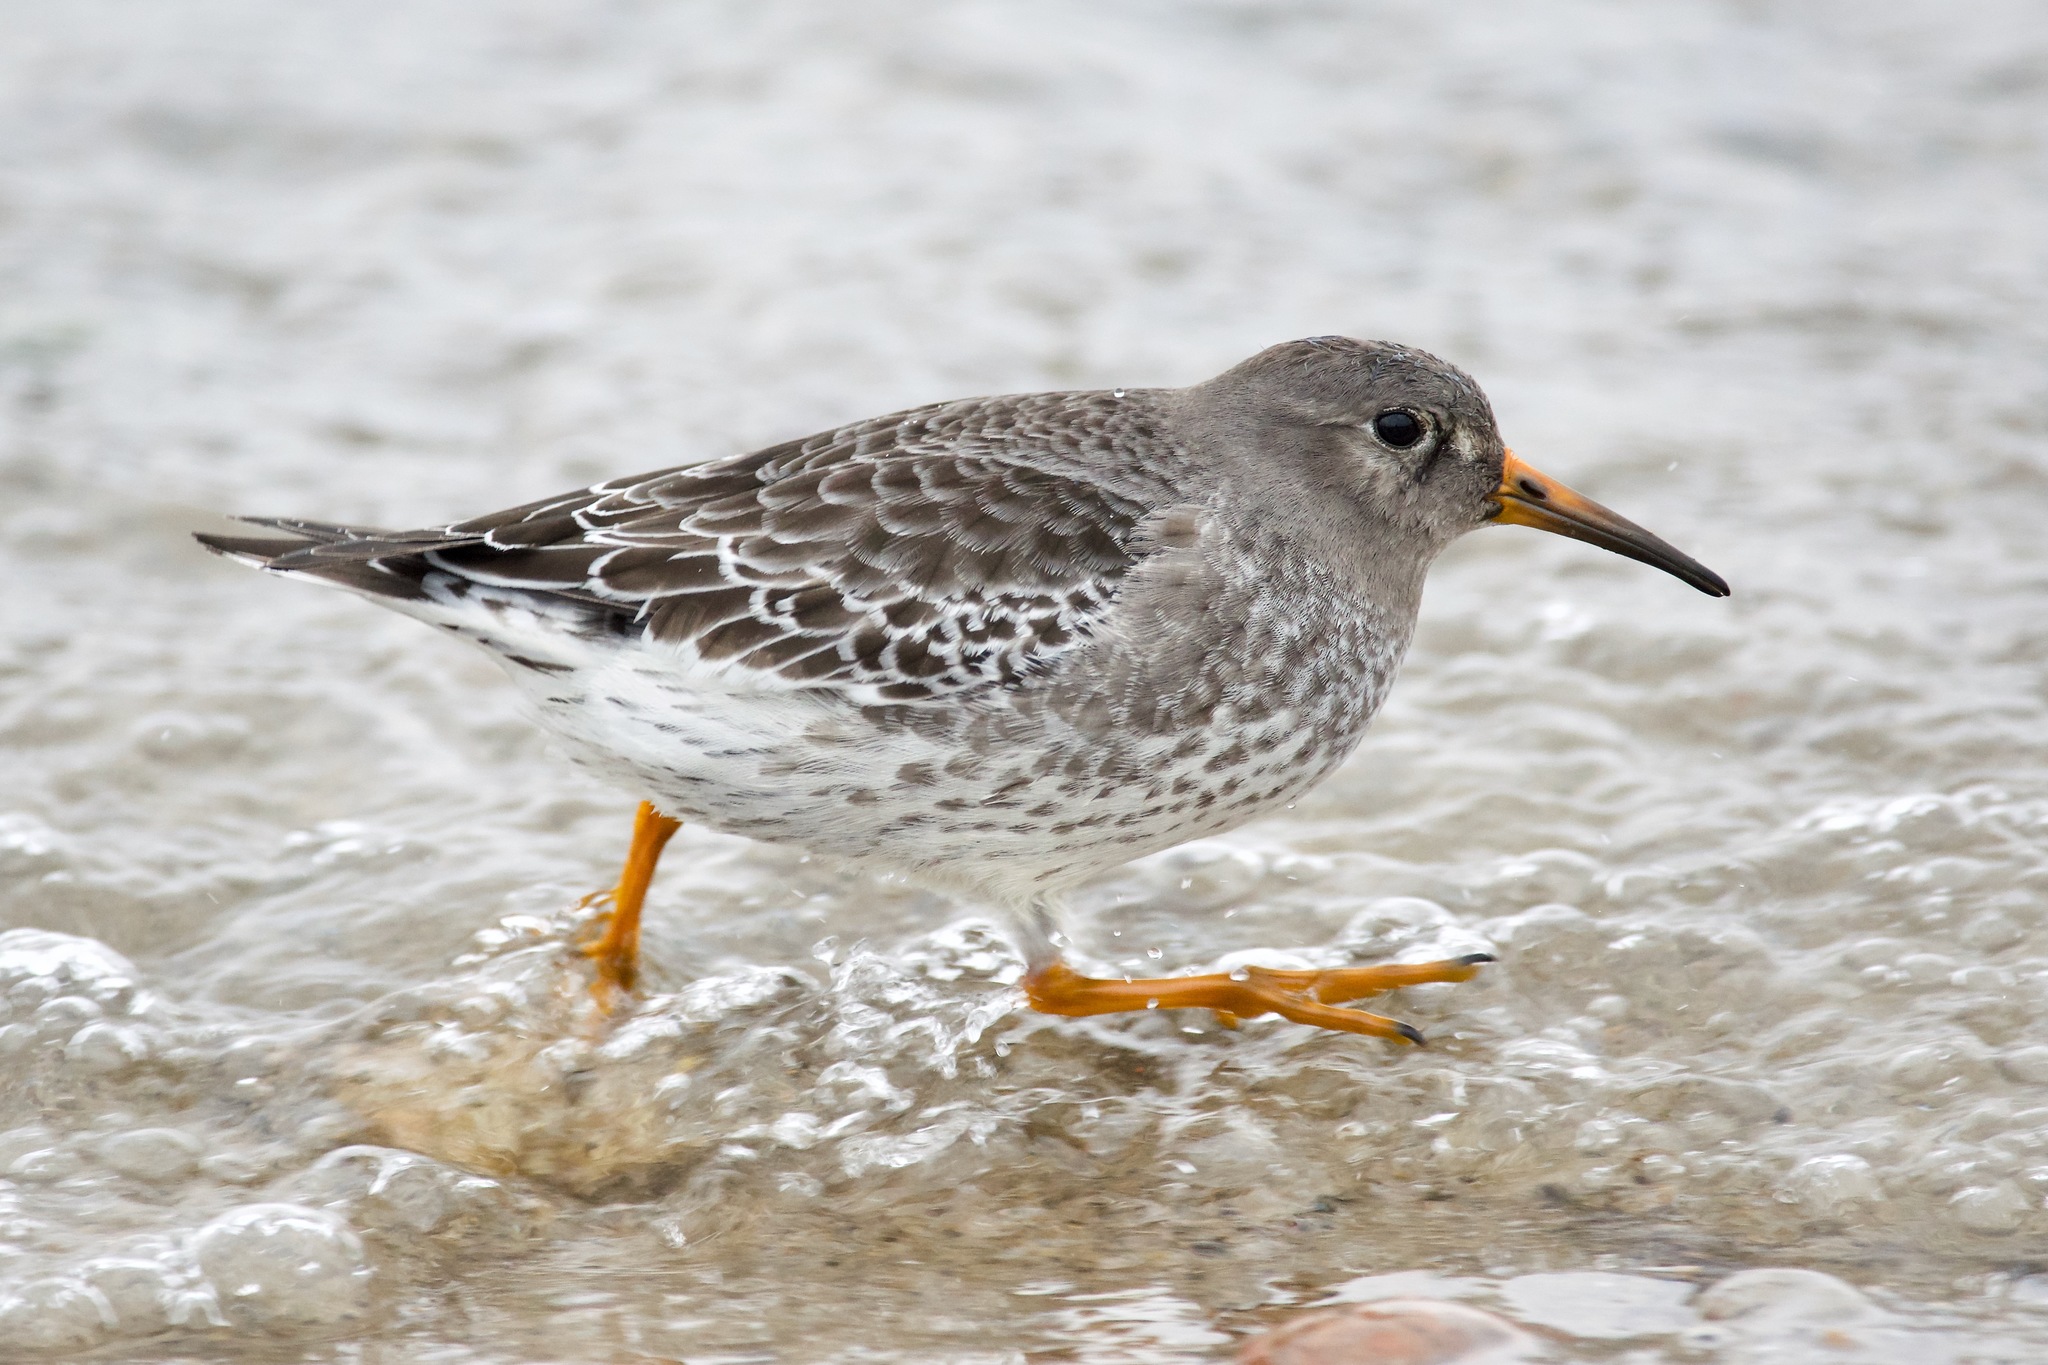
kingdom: Animalia
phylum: Chordata
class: Aves
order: Charadriiformes
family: Scolopacidae
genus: Calidris
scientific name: Calidris maritima
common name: Purple sandpiper
